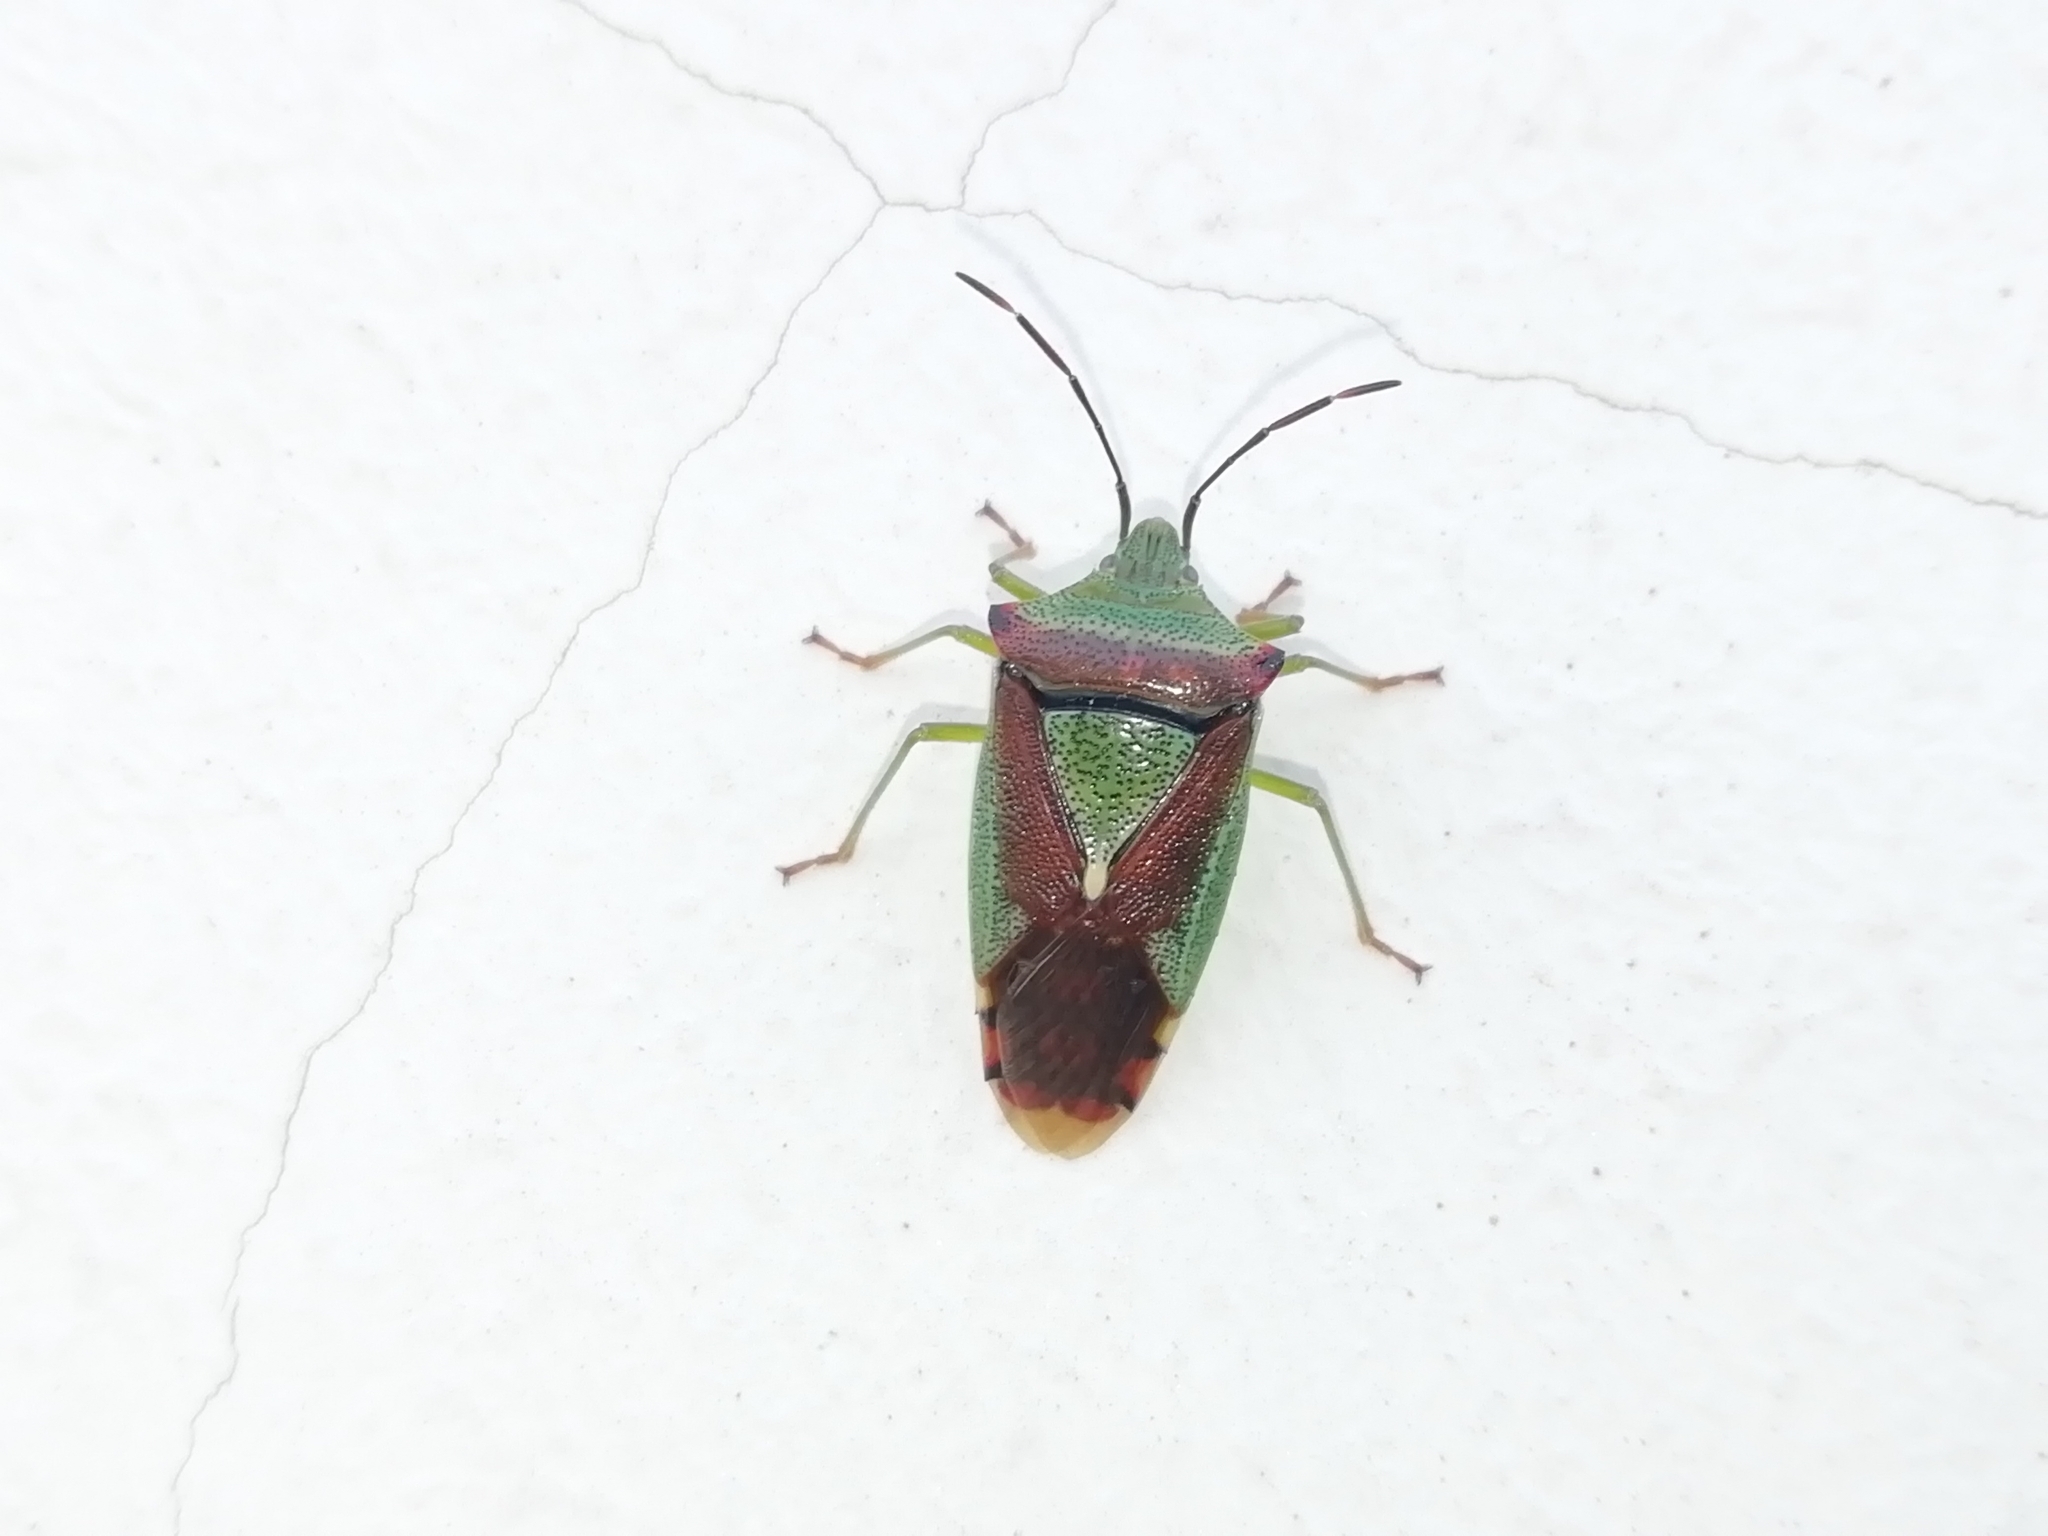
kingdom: Animalia
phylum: Arthropoda
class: Insecta
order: Hemiptera
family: Acanthosomatidae
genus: Acanthosoma
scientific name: Acanthosoma spinicolle
